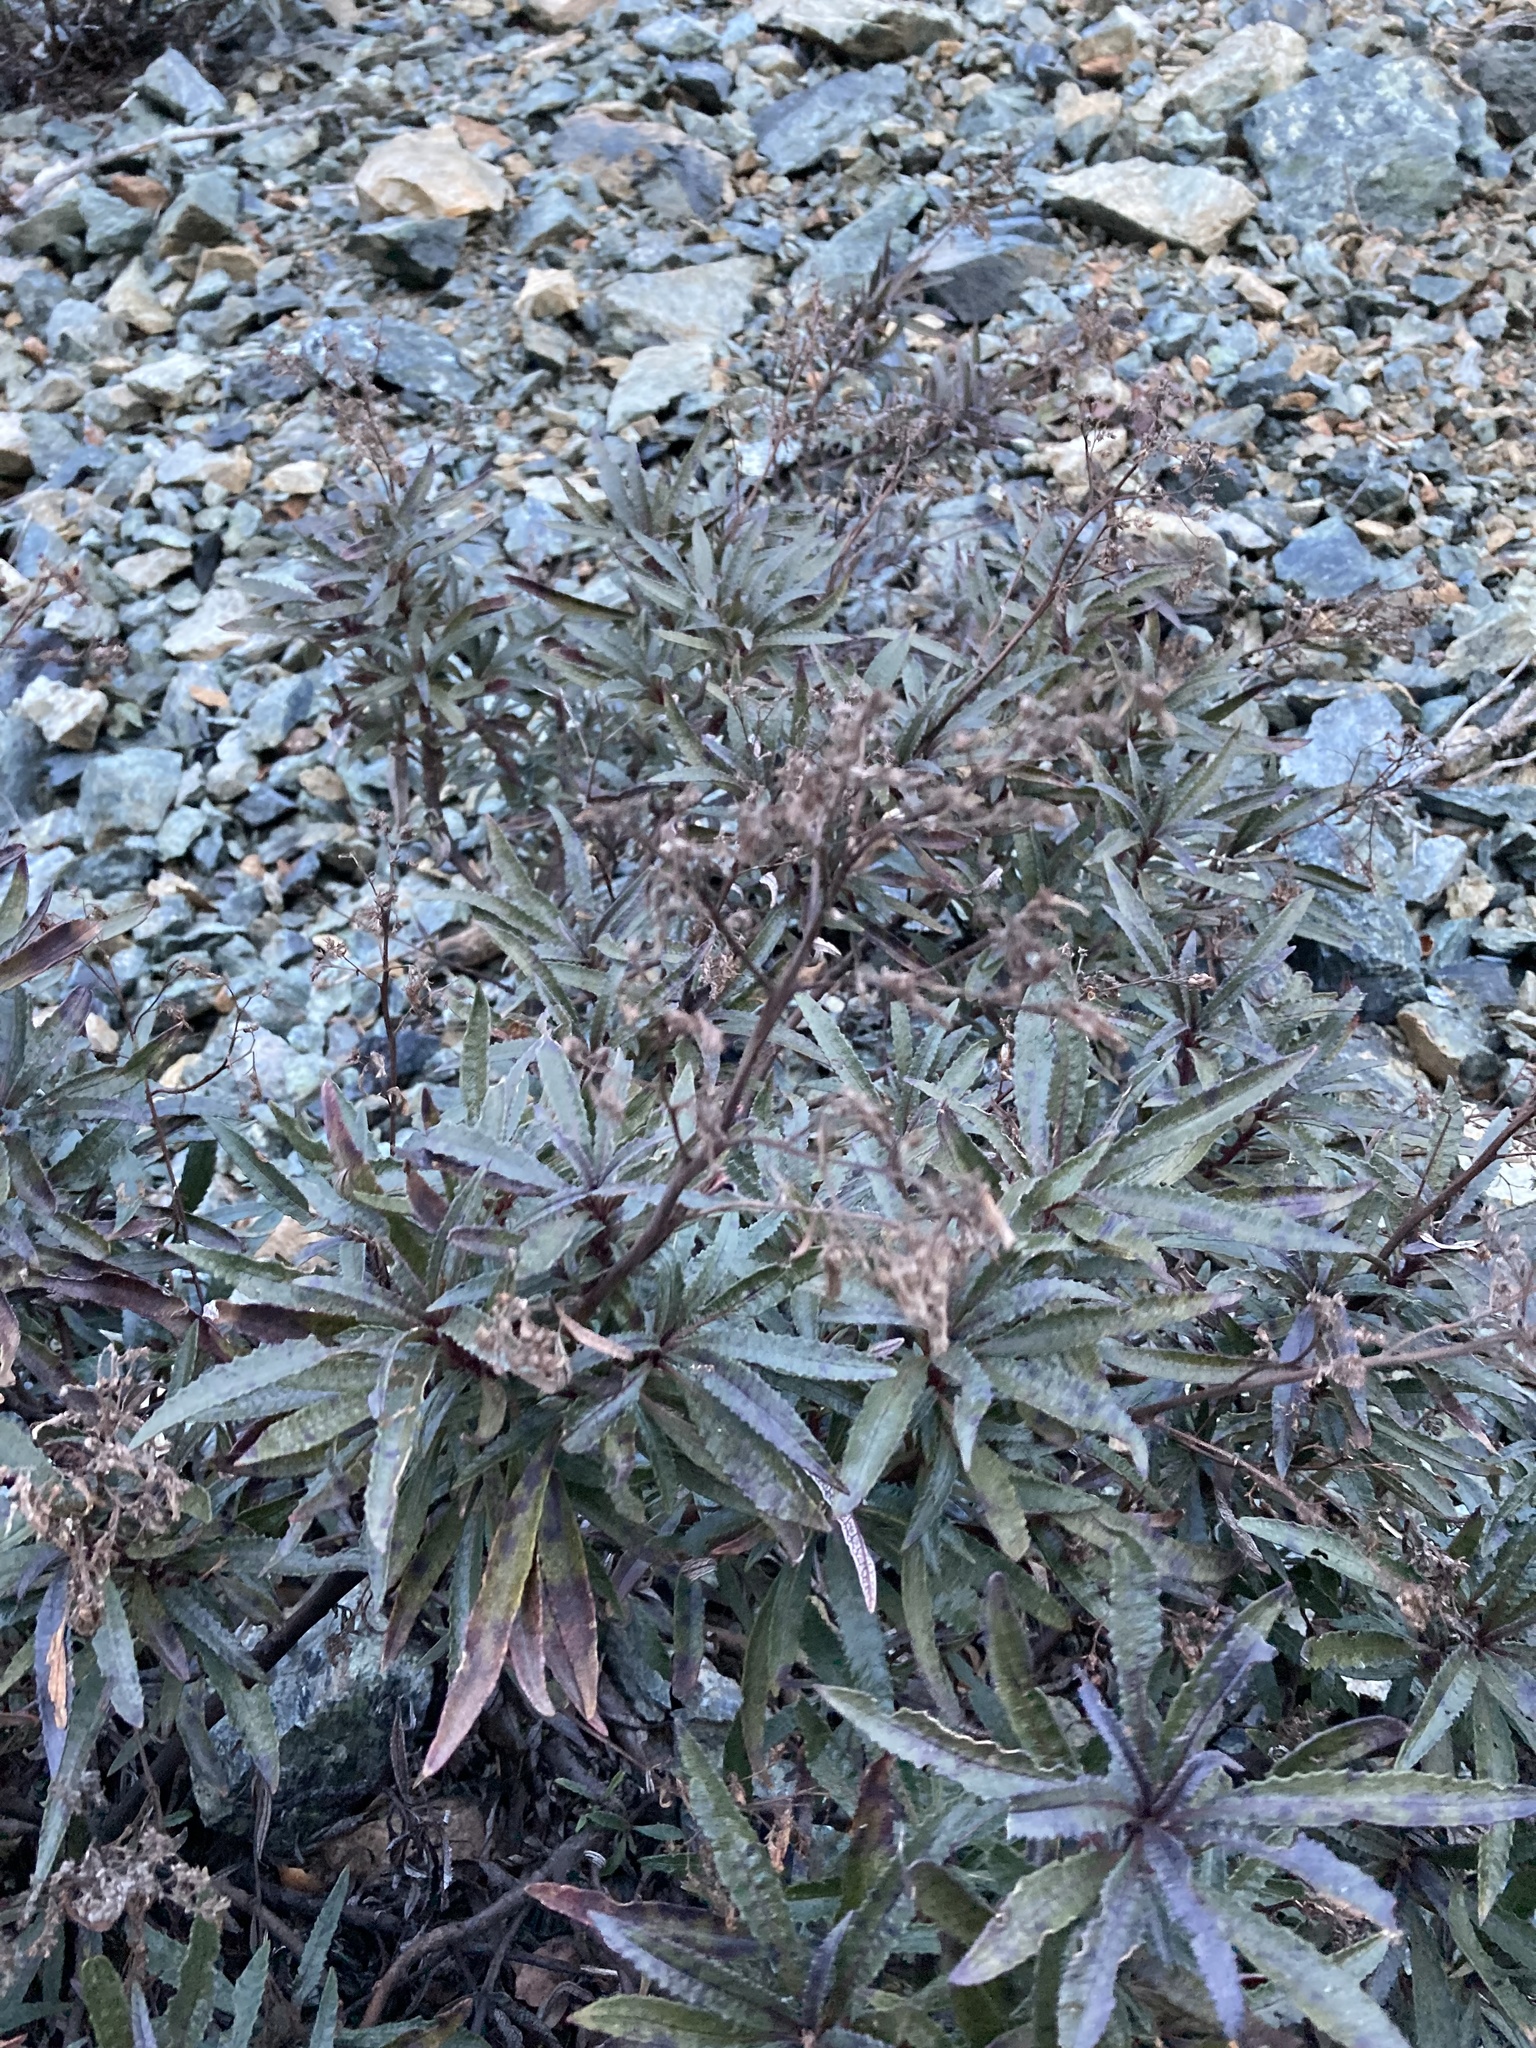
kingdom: Plantae
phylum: Tracheophyta
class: Magnoliopsida
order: Boraginales
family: Namaceae
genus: Eriodictyon
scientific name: Eriodictyon californicum
